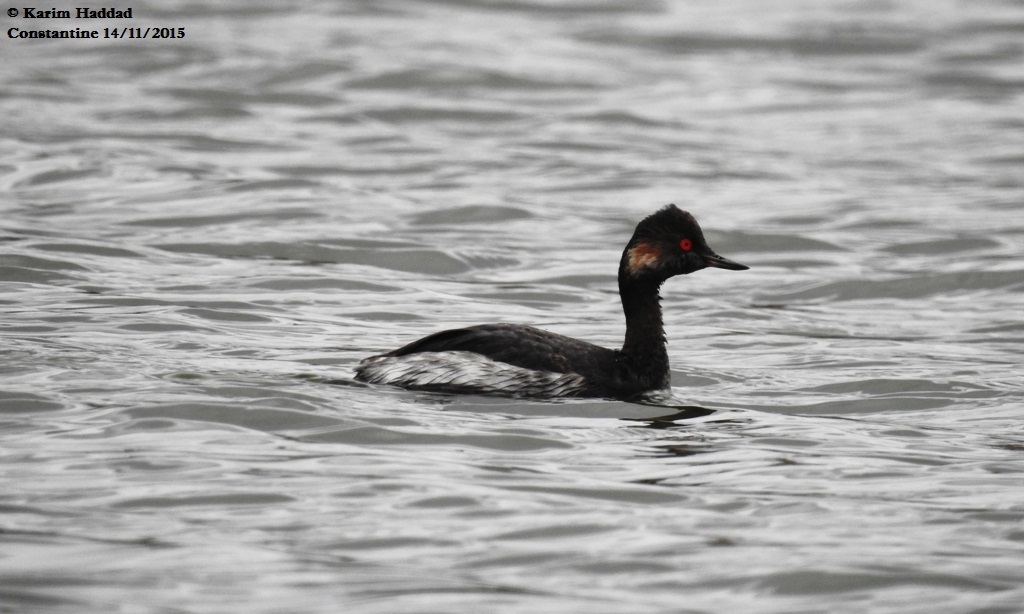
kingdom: Animalia
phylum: Chordata
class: Aves
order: Podicipediformes
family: Podicipedidae
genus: Podiceps
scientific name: Podiceps nigricollis
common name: Black-necked grebe
